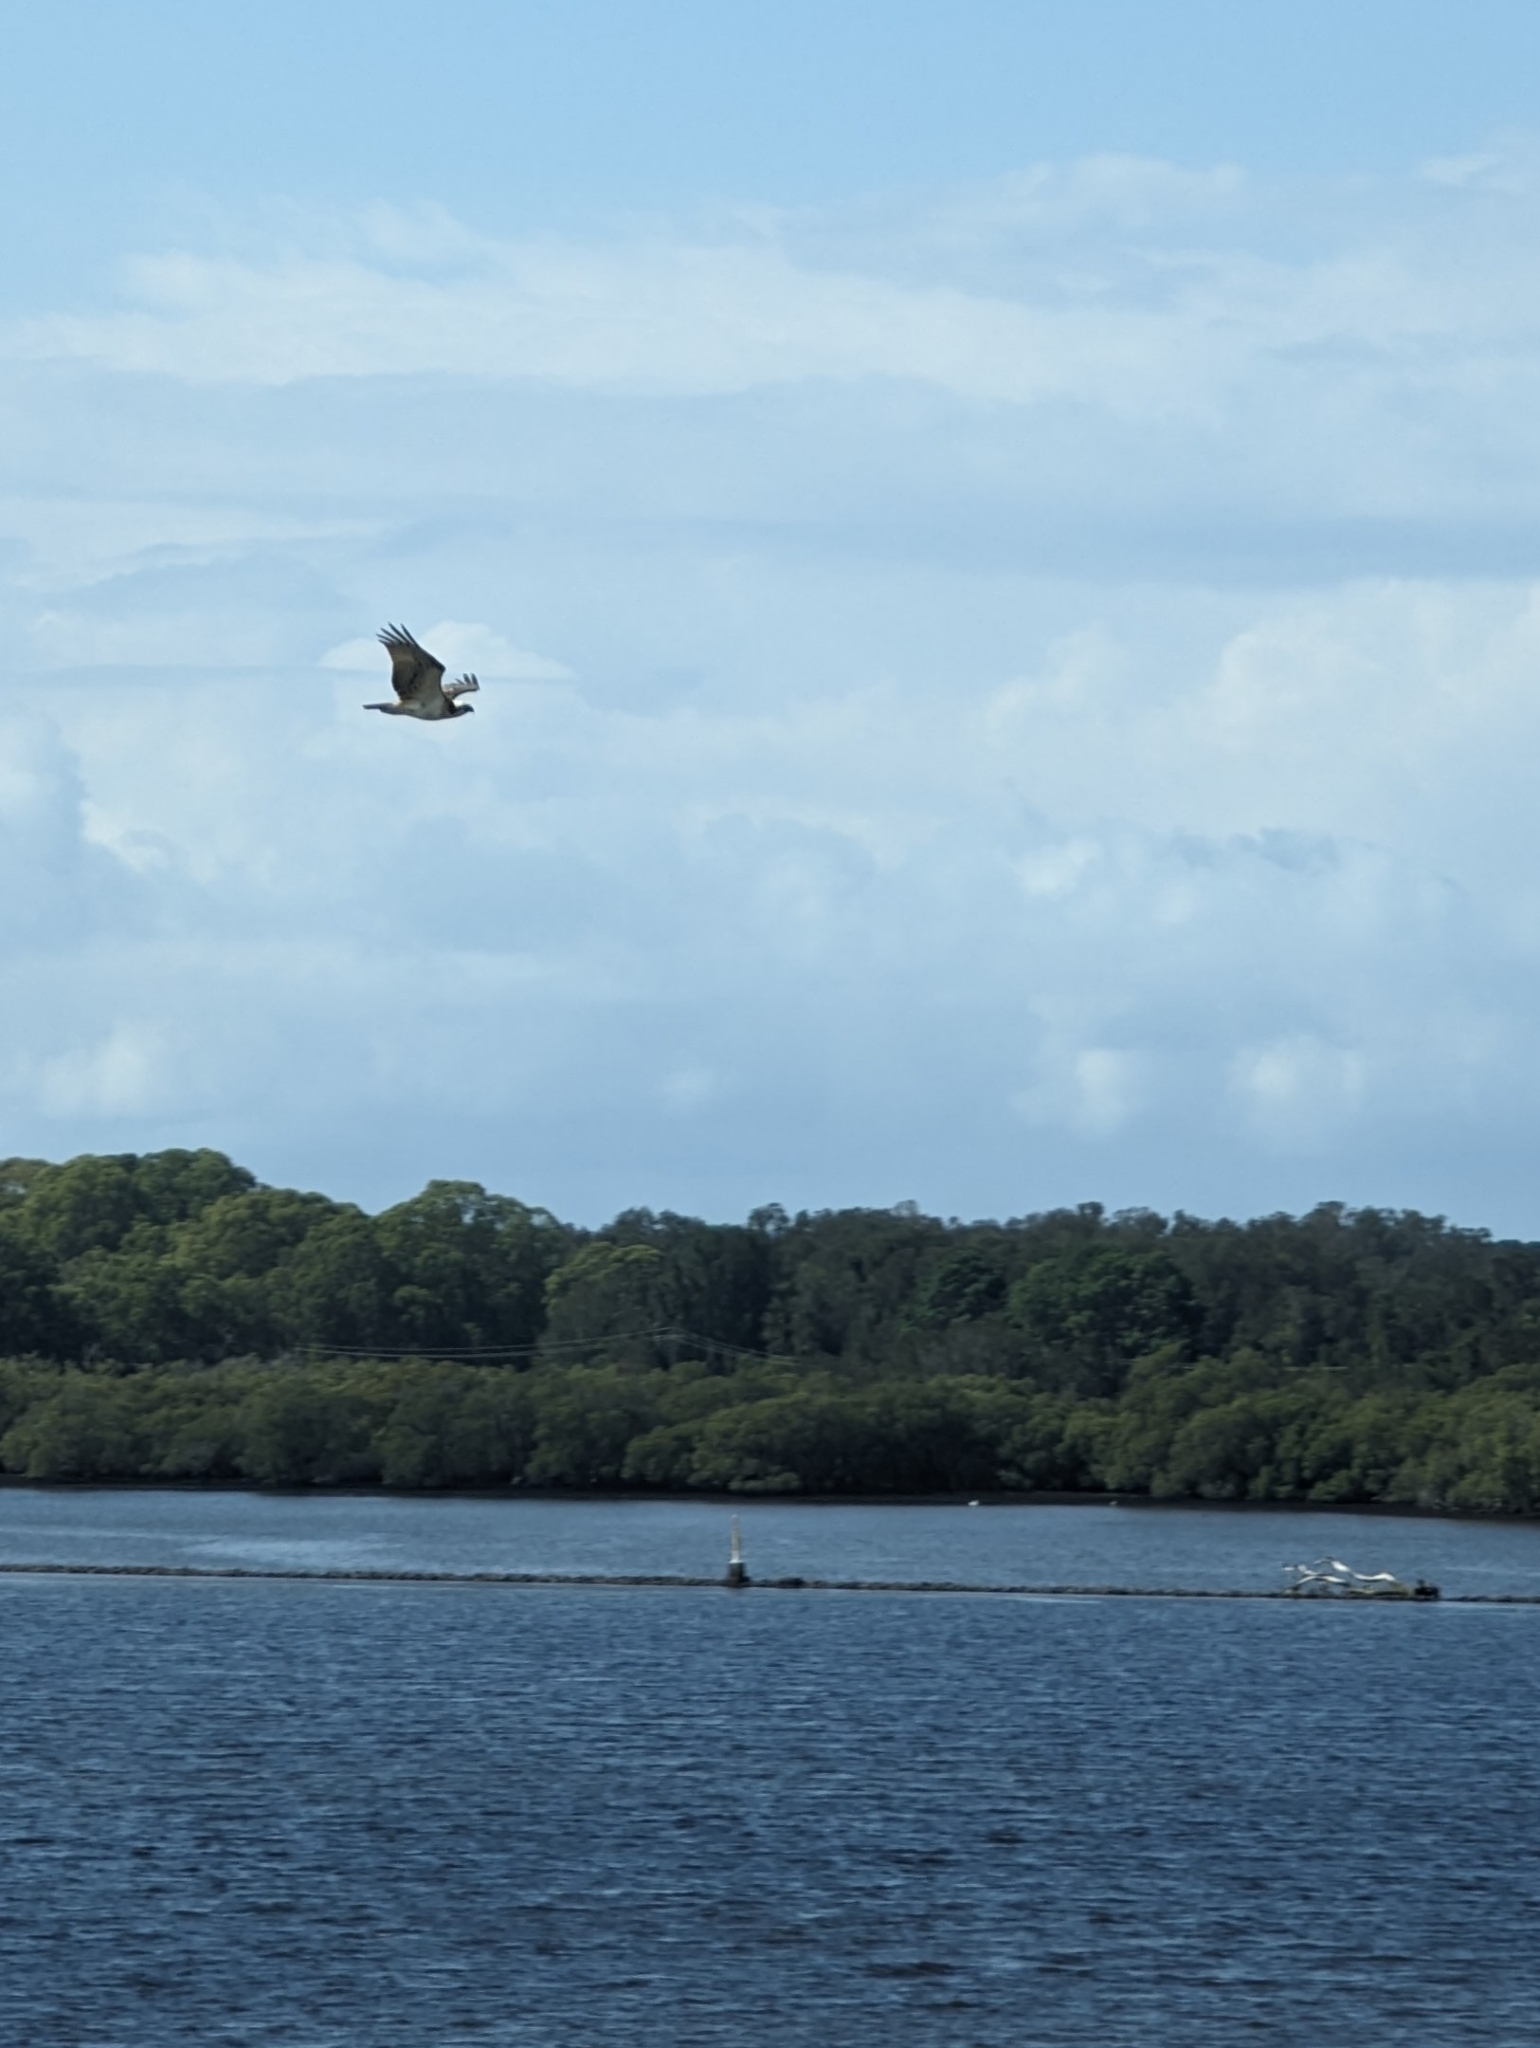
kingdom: Animalia
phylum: Chordata
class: Aves
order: Accipitriformes
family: Pandionidae
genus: Pandion
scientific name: Pandion haliaetus
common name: Osprey
